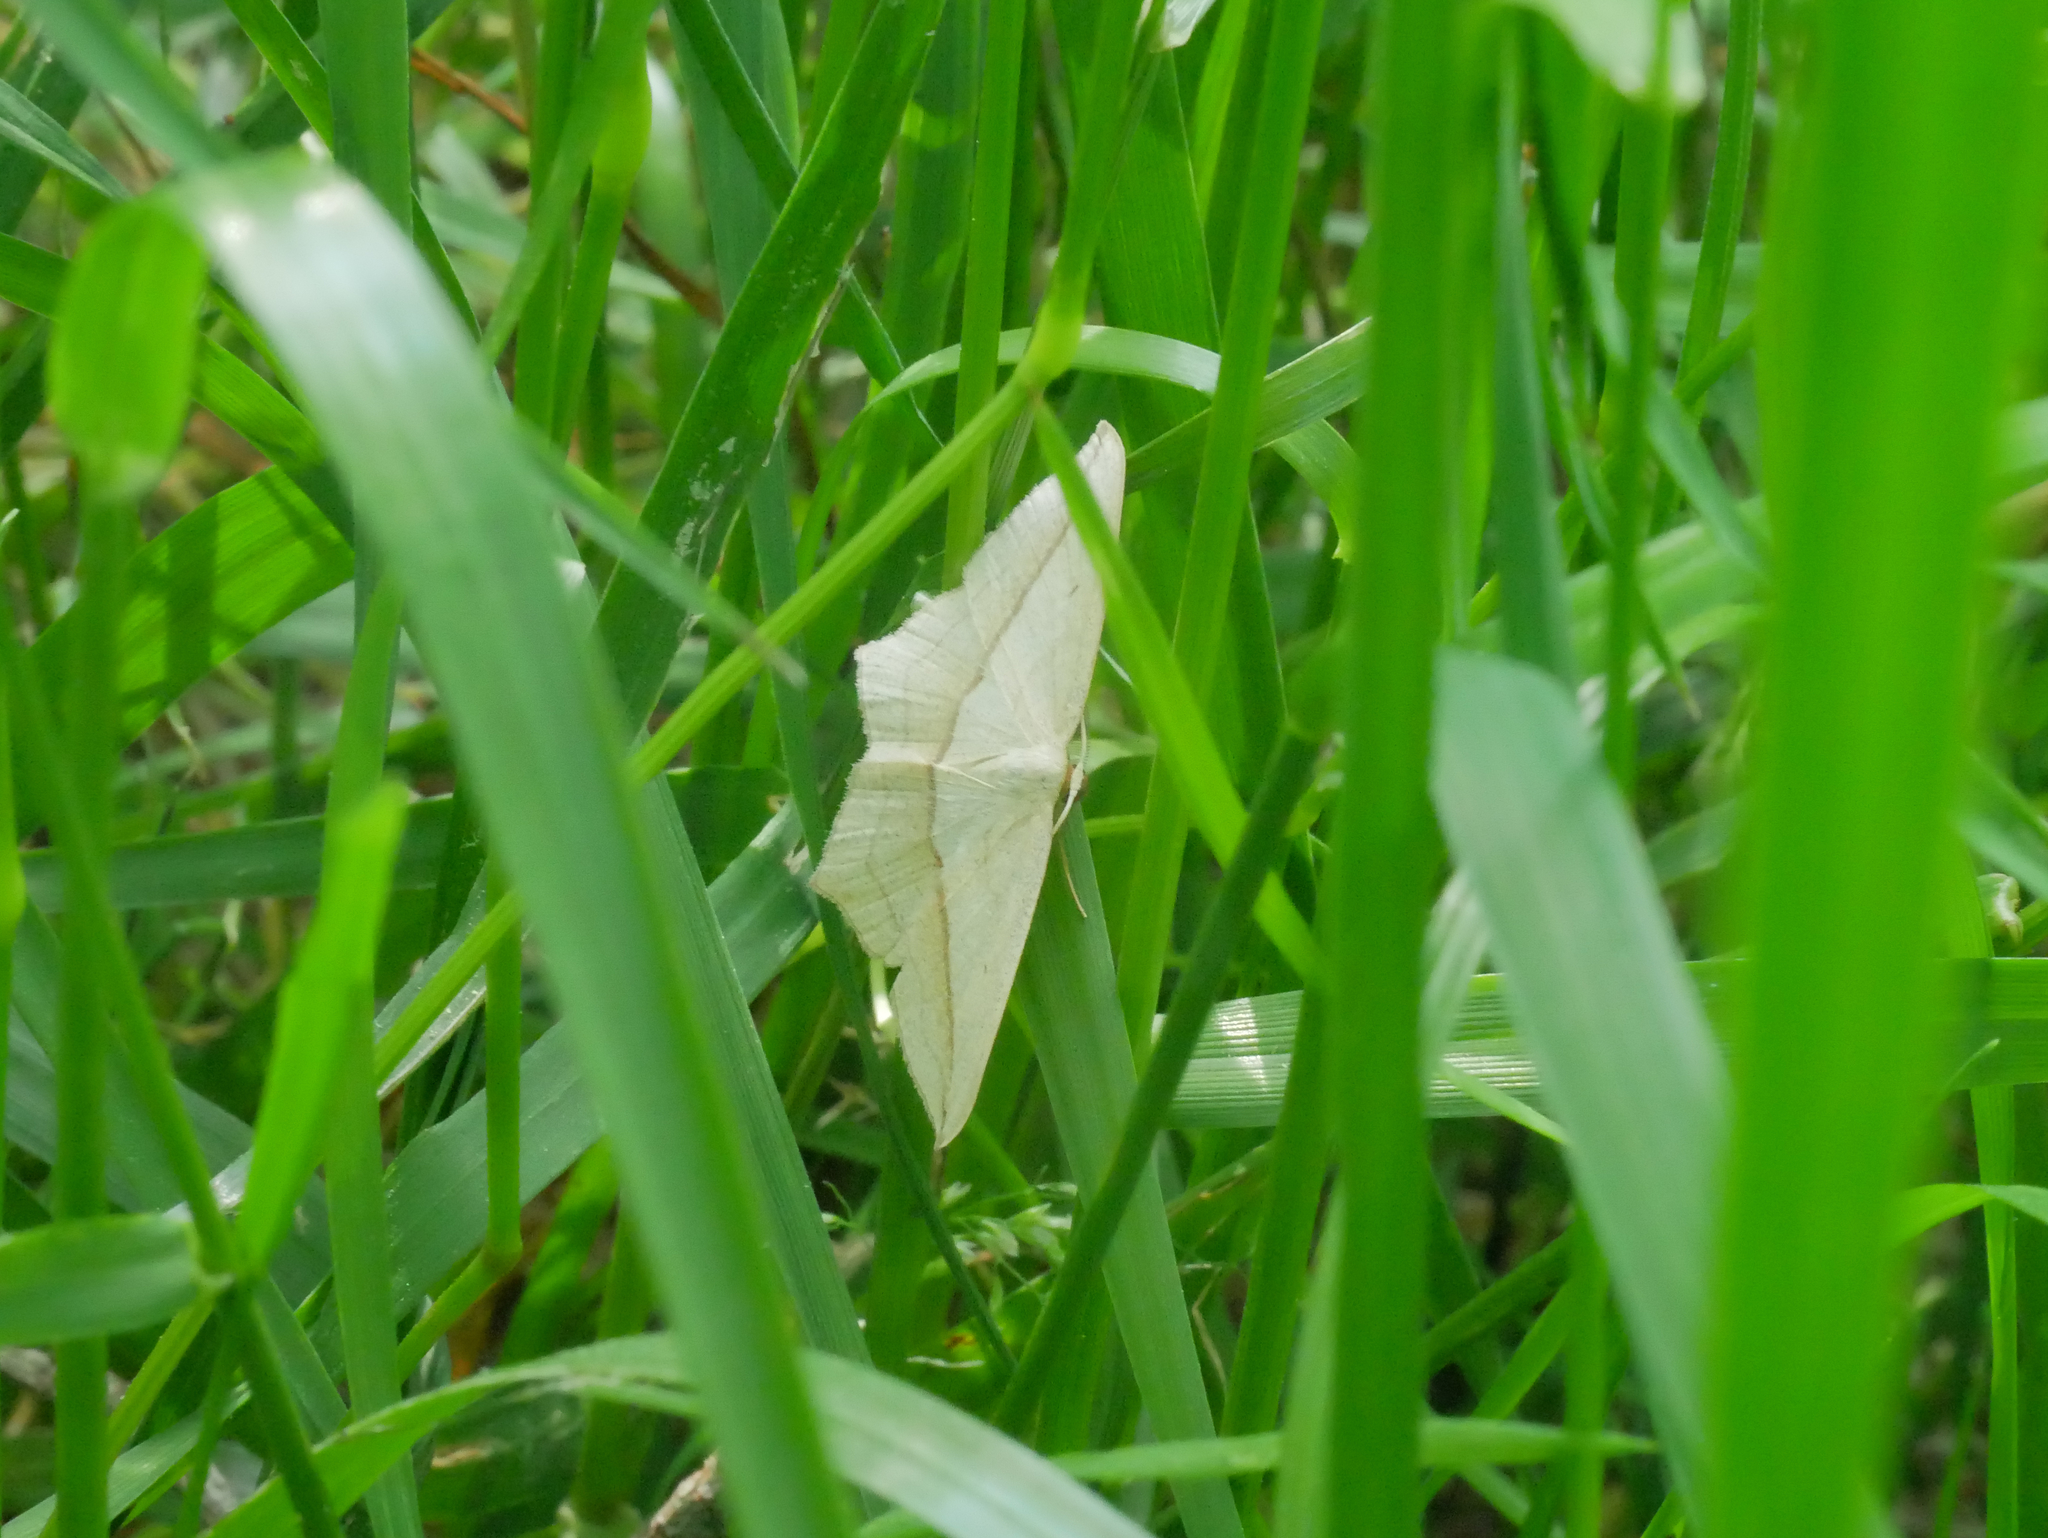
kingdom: Animalia
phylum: Arthropoda
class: Insecta
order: Lepidoptera
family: Geometridae
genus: Timandra
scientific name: Timandra comae
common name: Blood-vein
